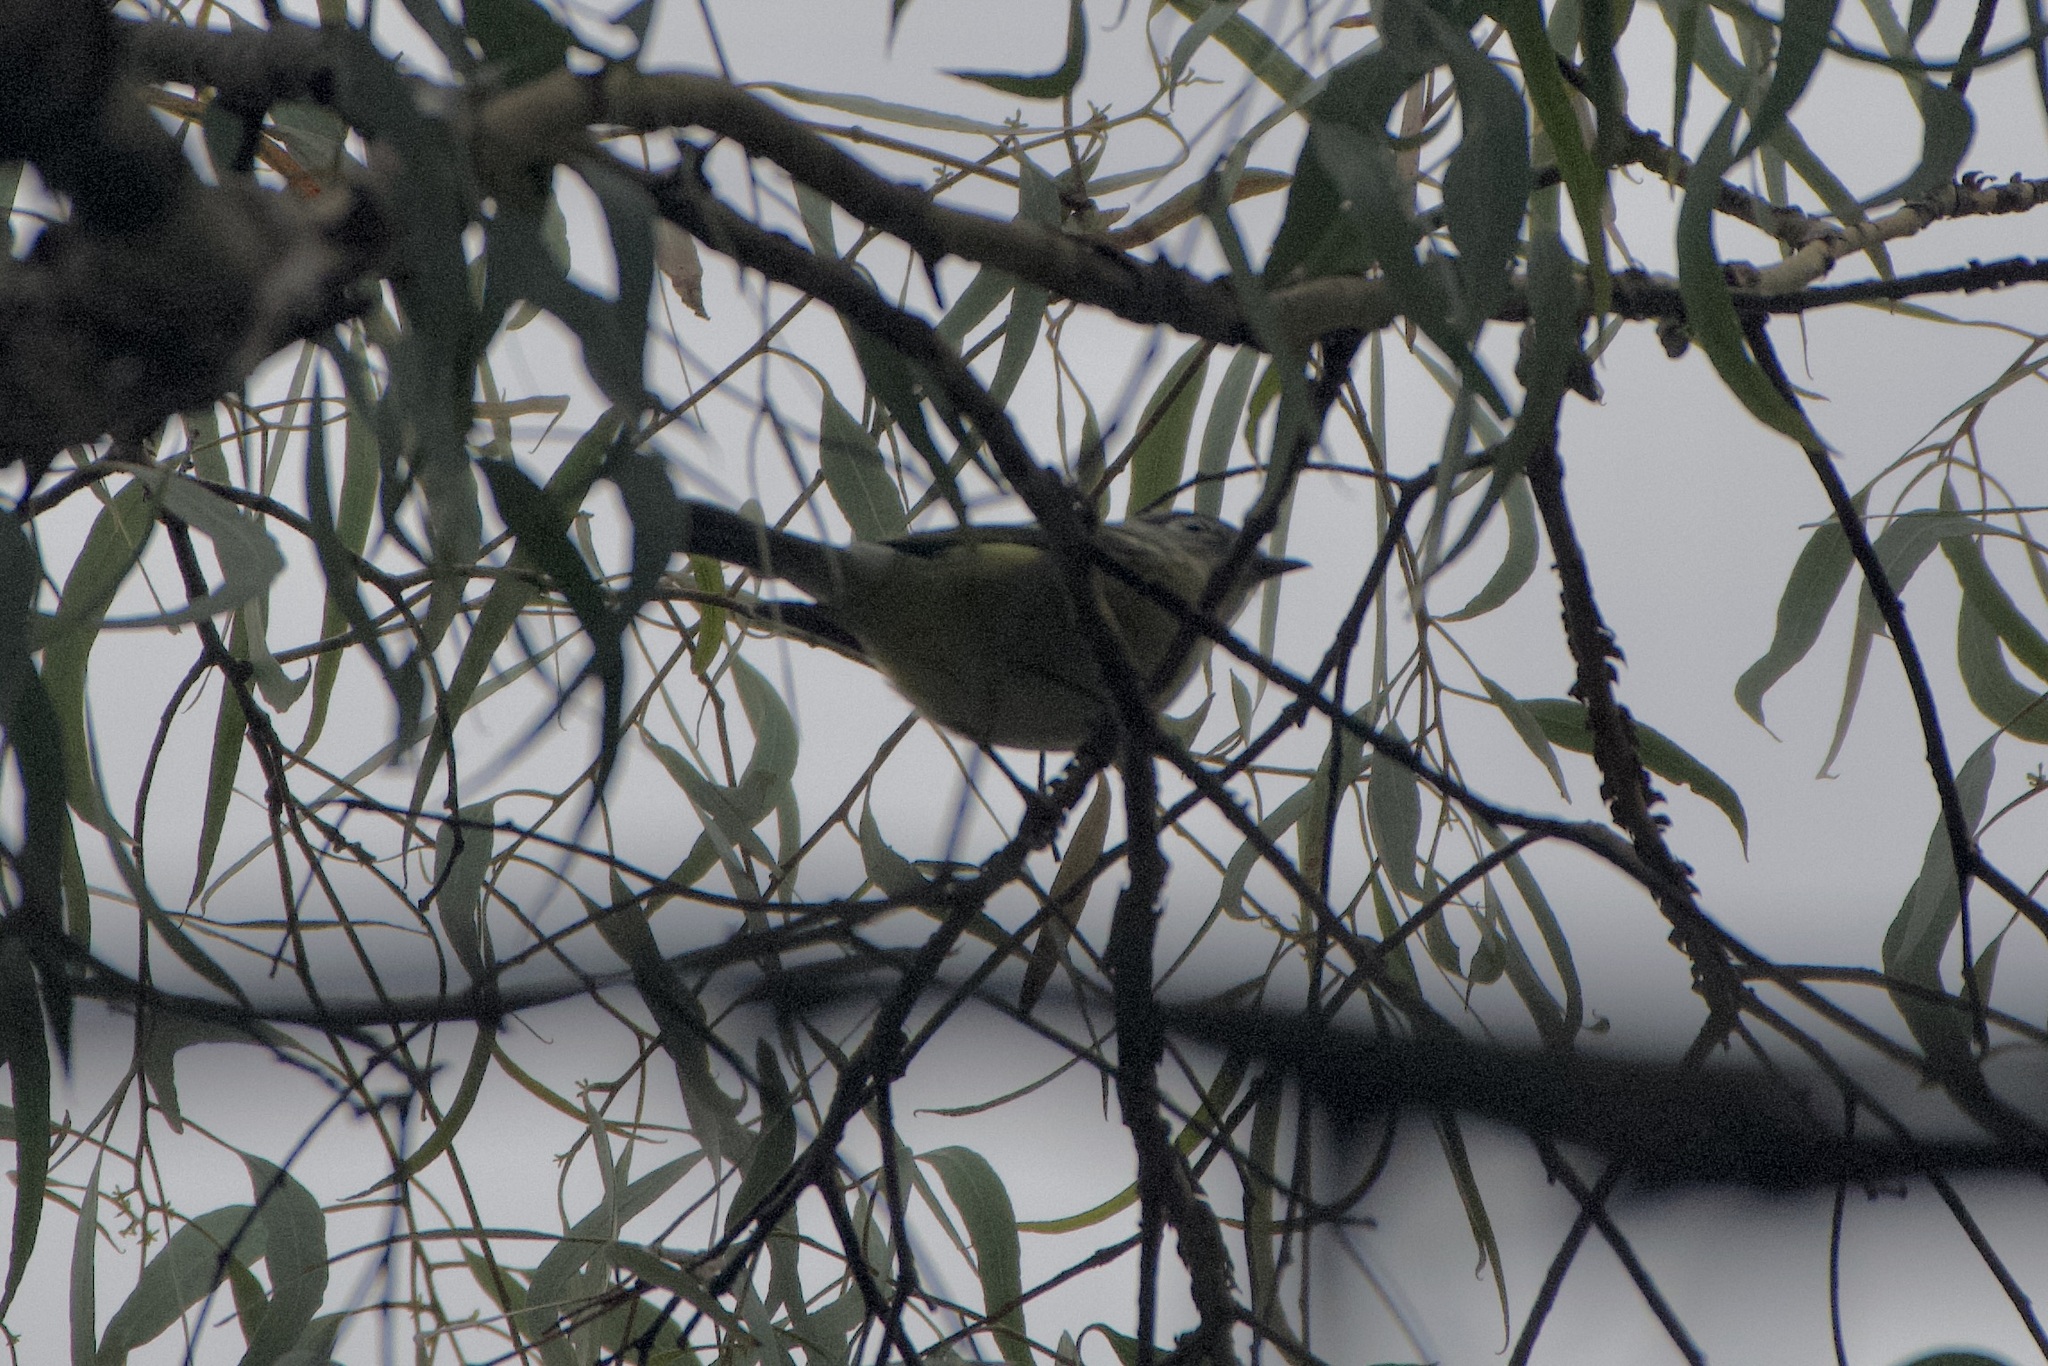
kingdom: Animalia
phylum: Chordata
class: Aves
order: Passeriformes
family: Vireonidae
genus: Vireo
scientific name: Vireo cassinii
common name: Cassin's vireo
